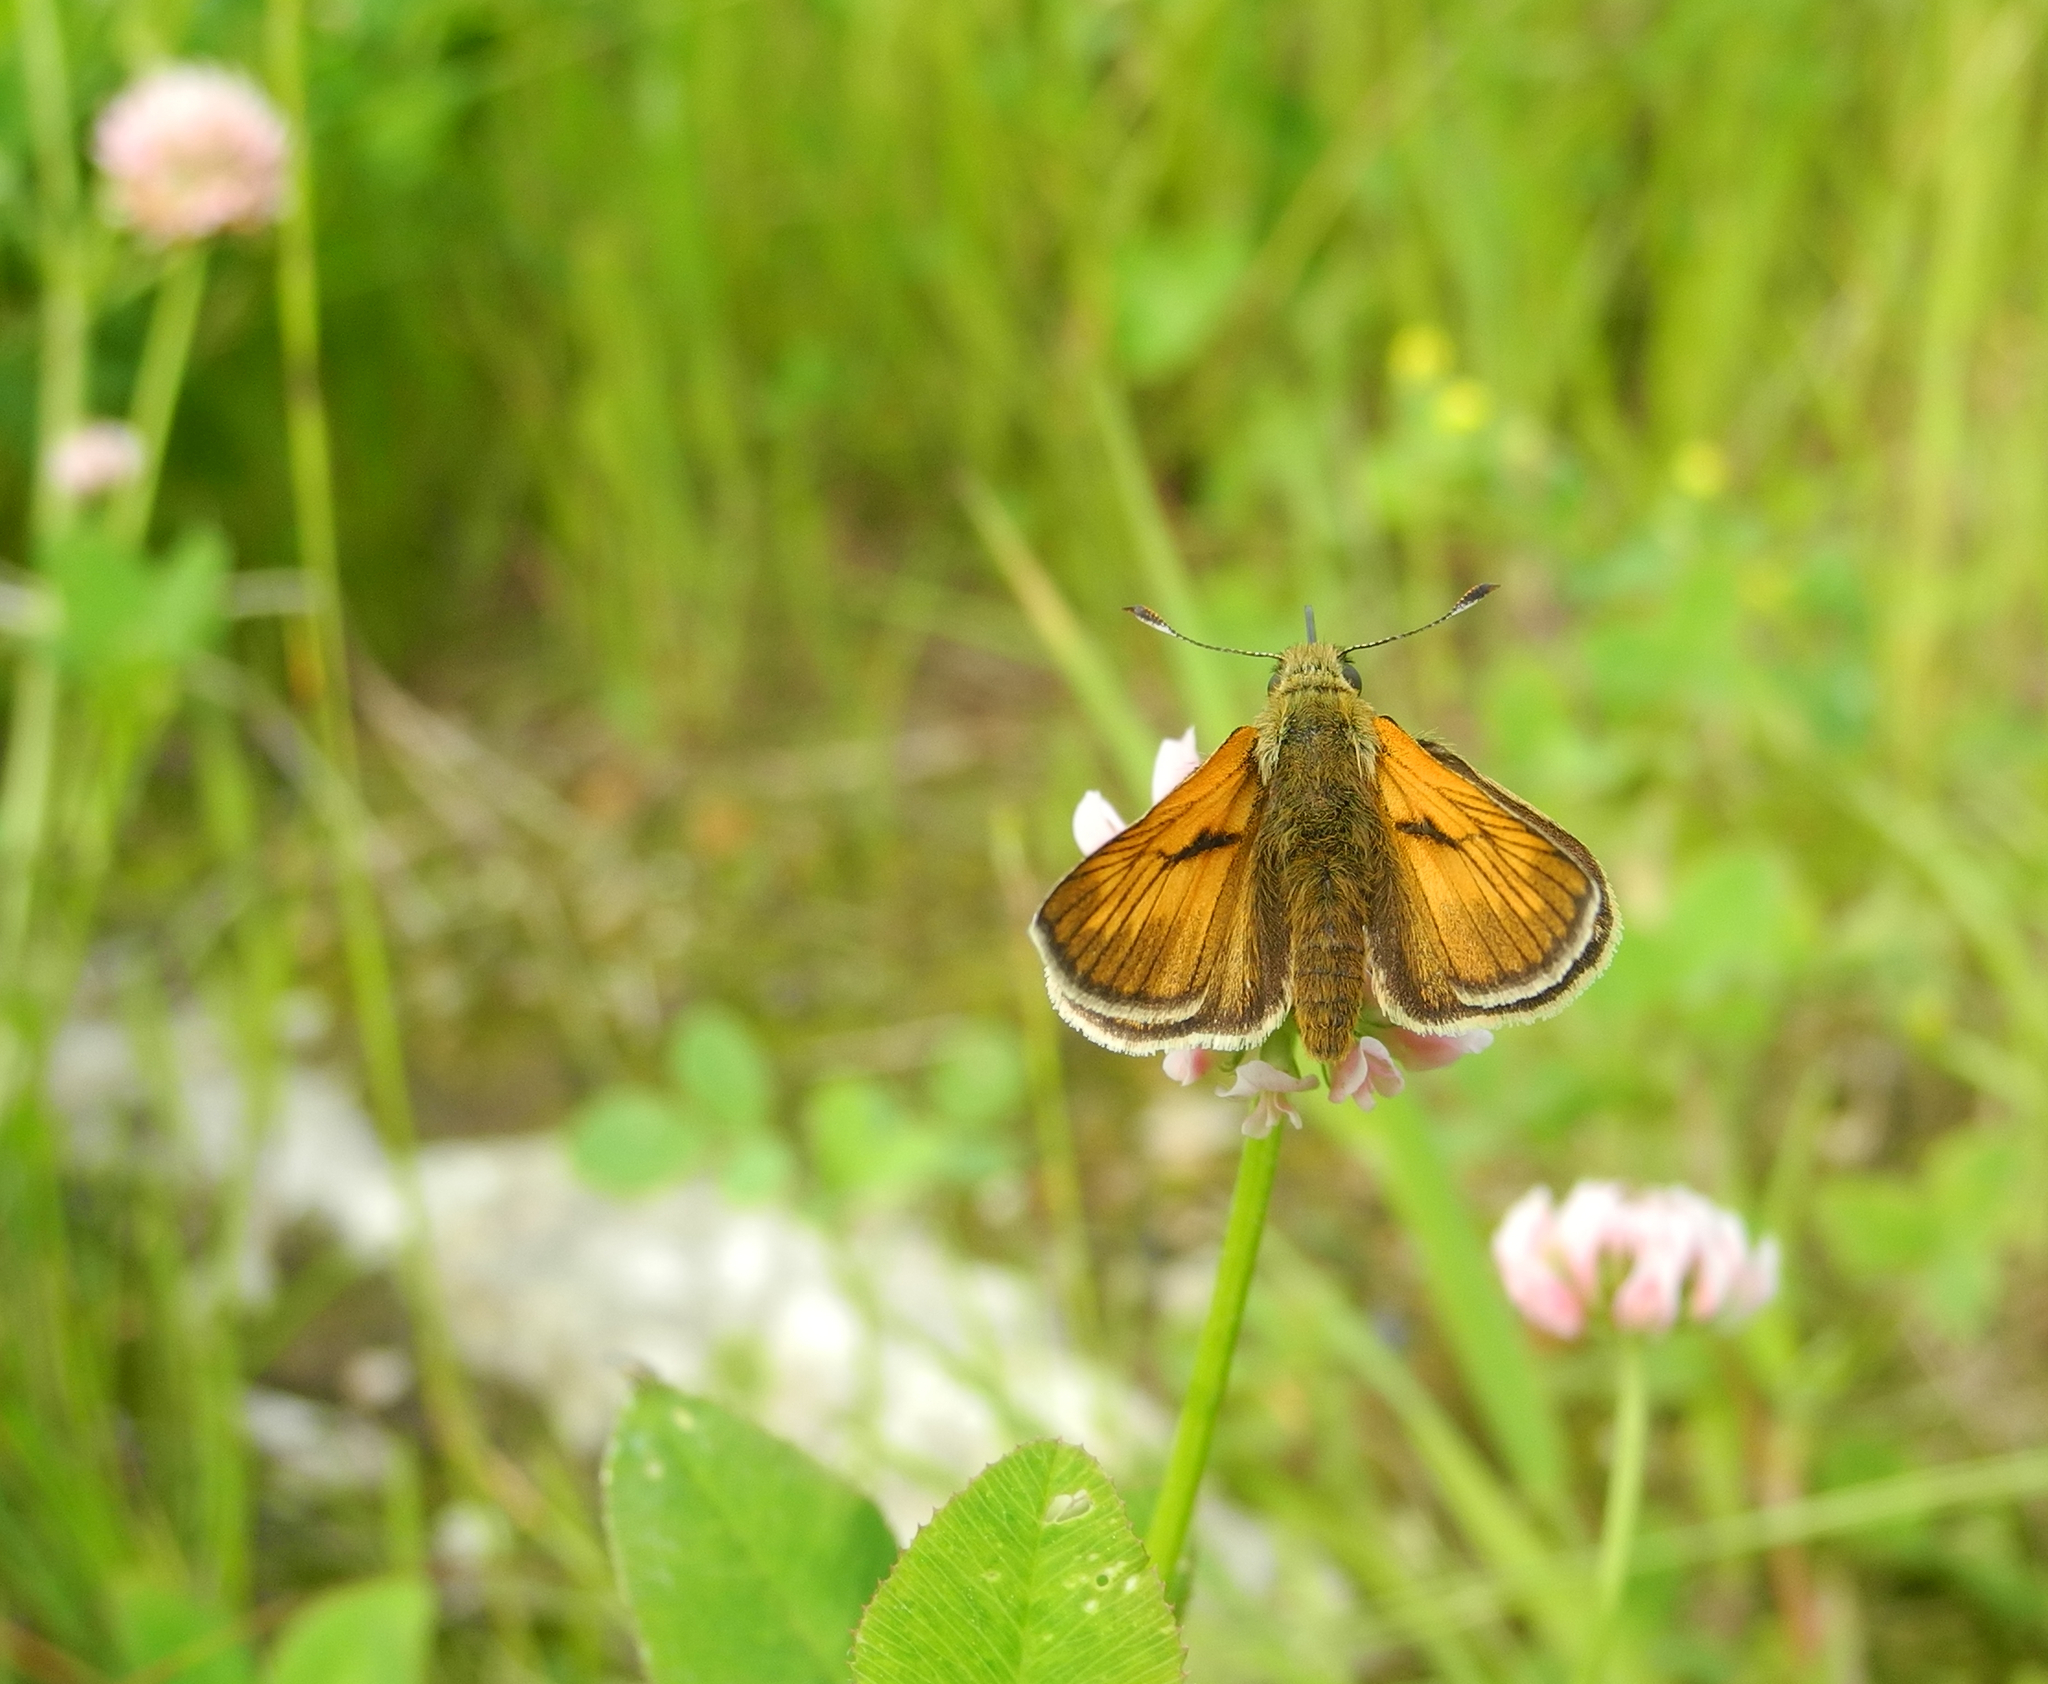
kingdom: Animalia
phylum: Arthropoda
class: Insecta
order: Lepidoptera
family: Hesperiidae
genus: Ochlodes
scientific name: Ochlodes venata
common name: Large skipper
